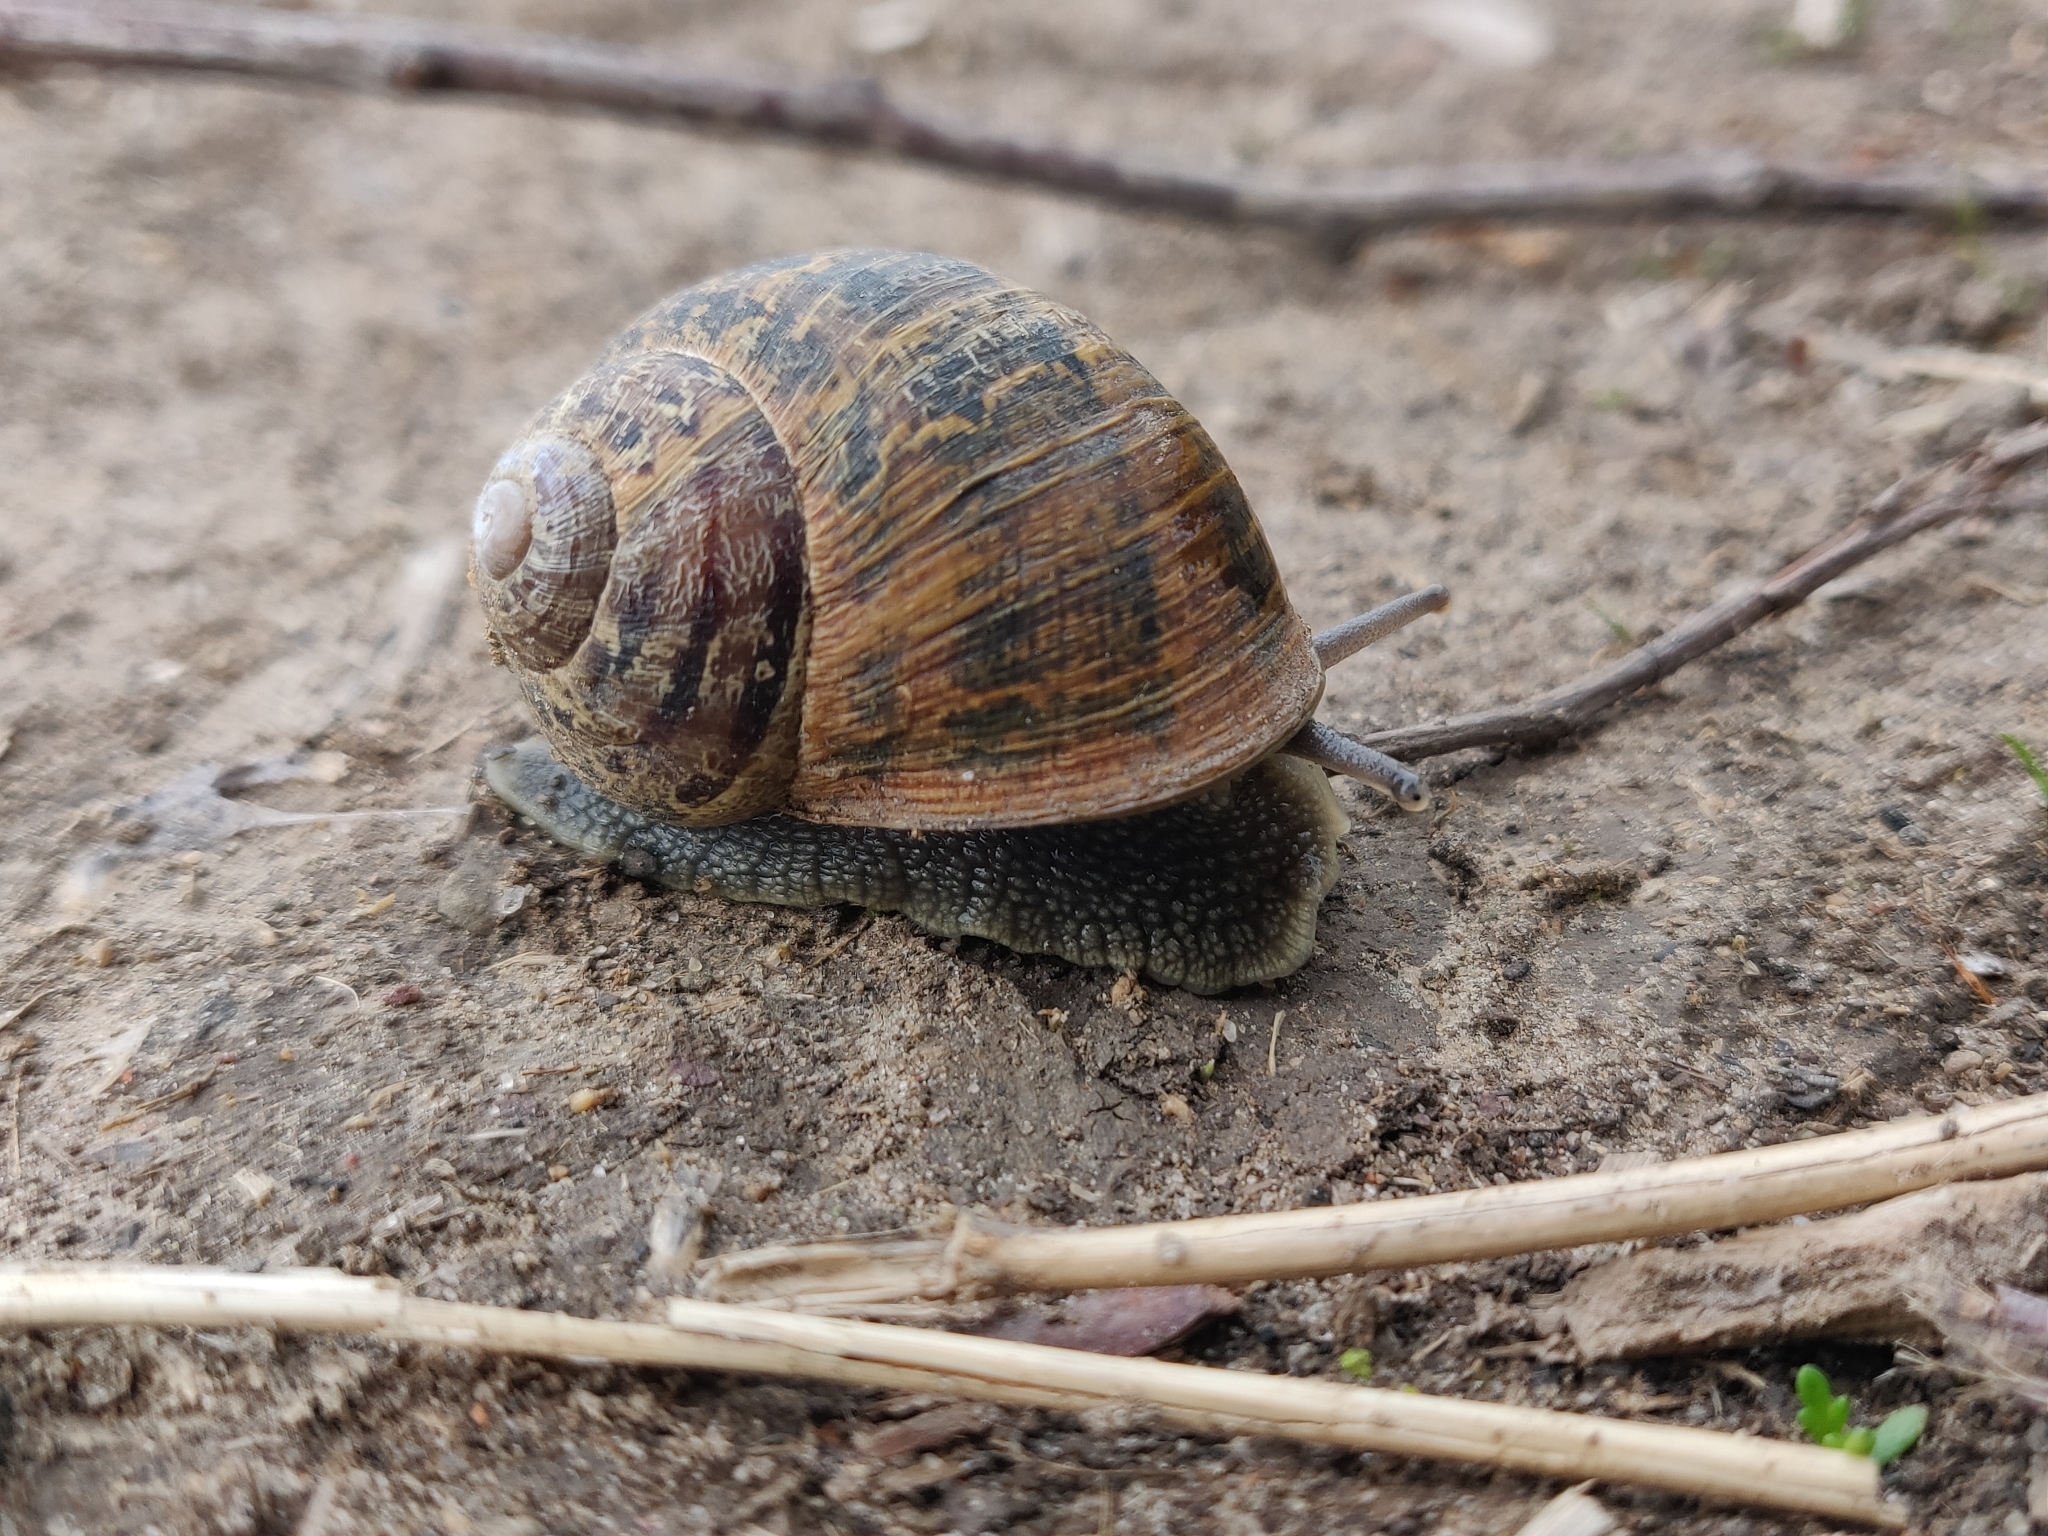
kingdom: Animalia
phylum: Mollusca
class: Gastropoda
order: Stylommatophora
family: Helicidae
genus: Cornu
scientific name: Cornu aspersum
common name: Brown garden snail
